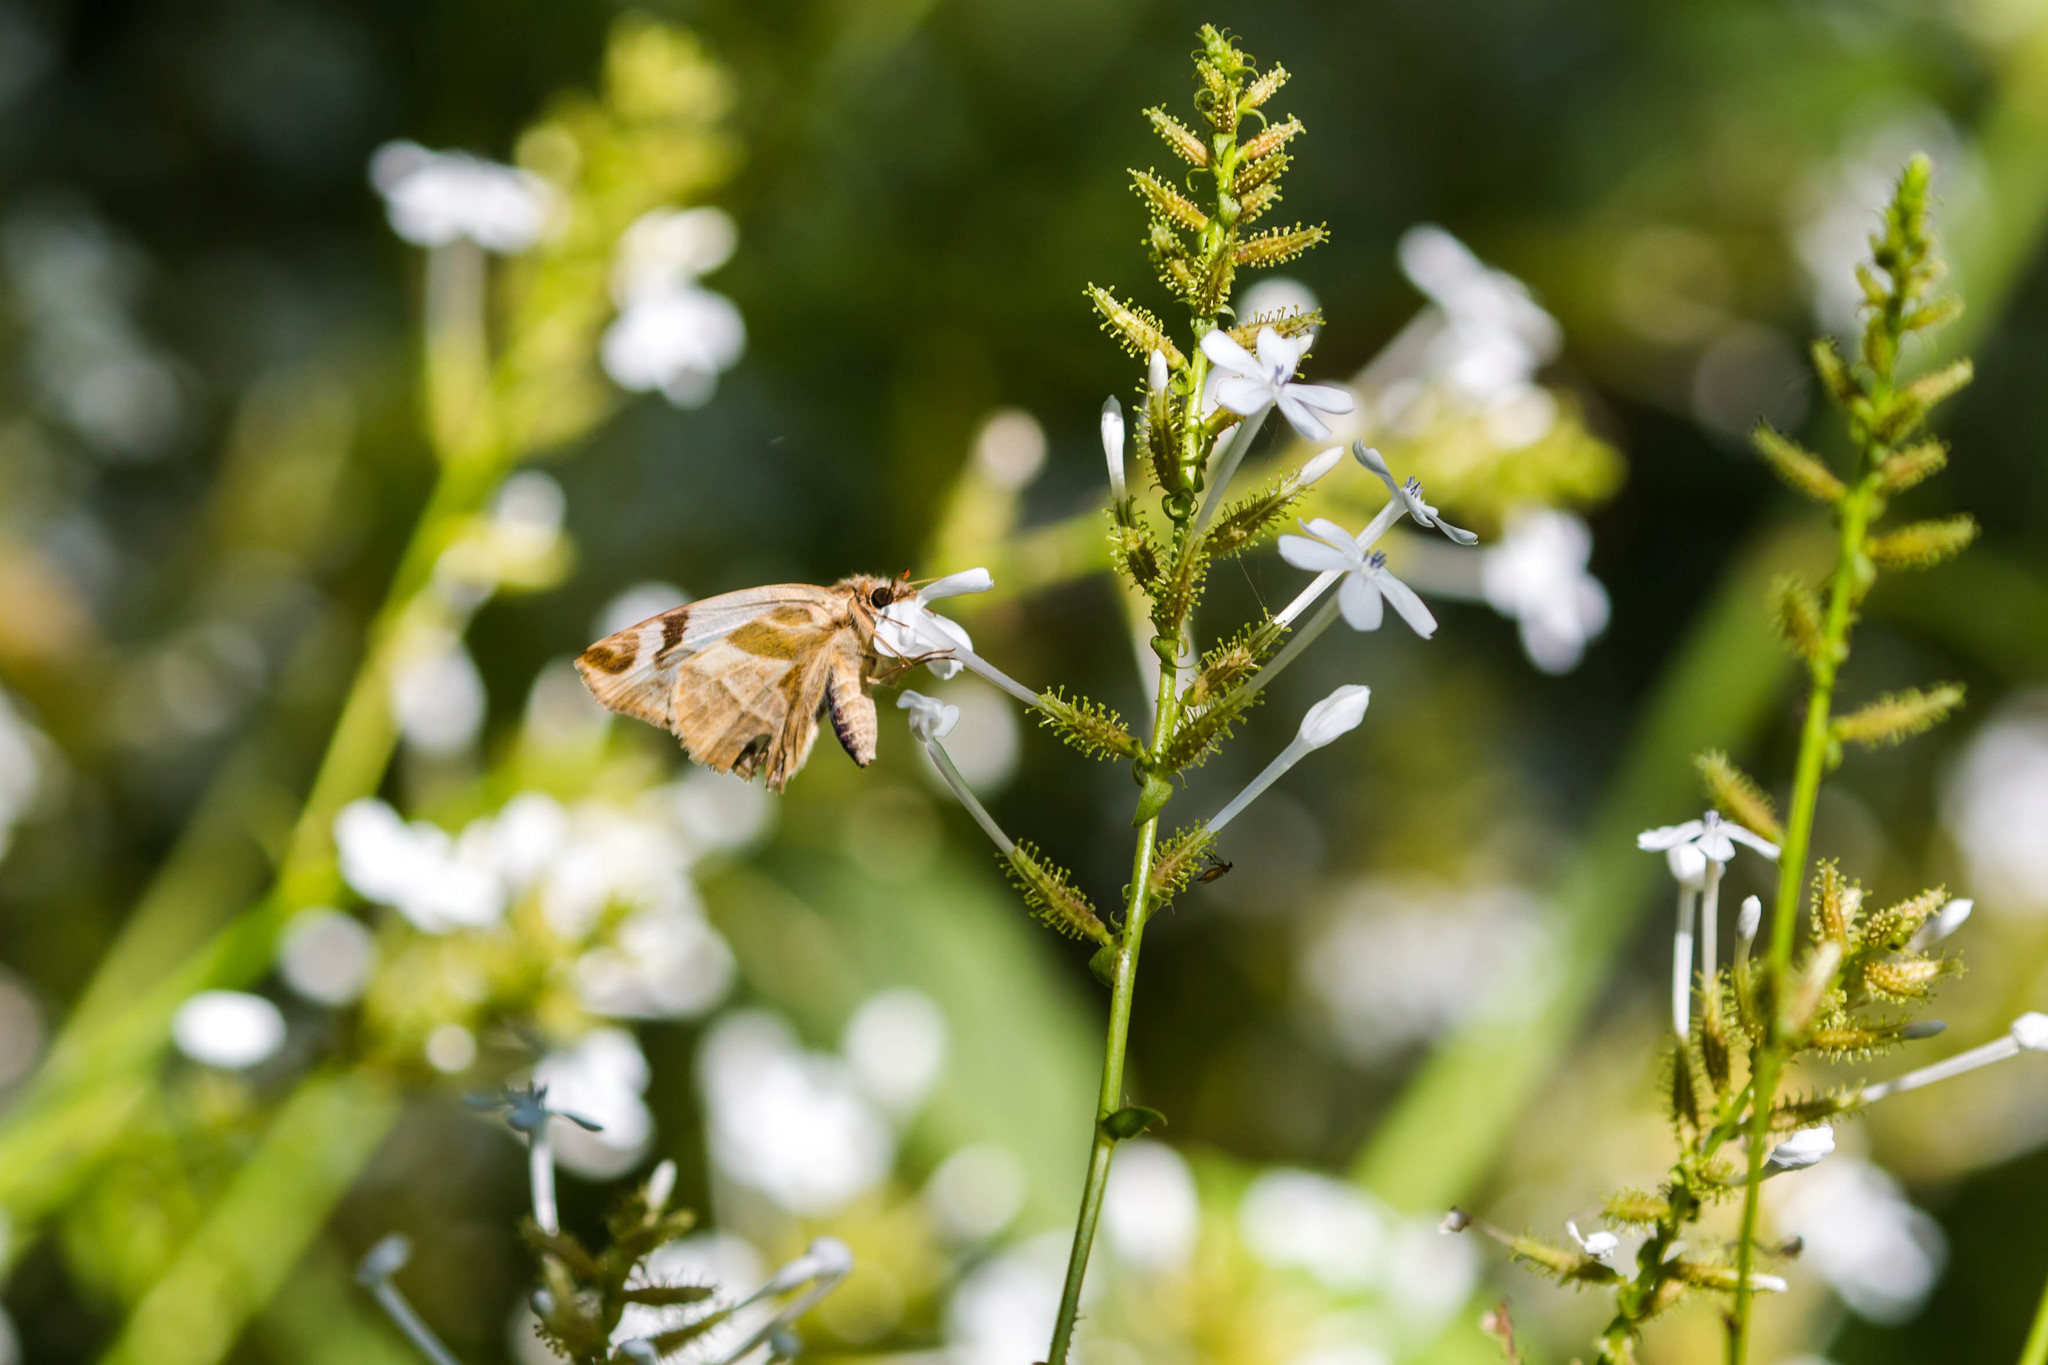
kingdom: Animalia
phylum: Arthropoda
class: Insecta
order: Lepidoptera
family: Hesperiidae
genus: Heliopetes
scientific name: Heliopetes laviana
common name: Laviana white-skipper
